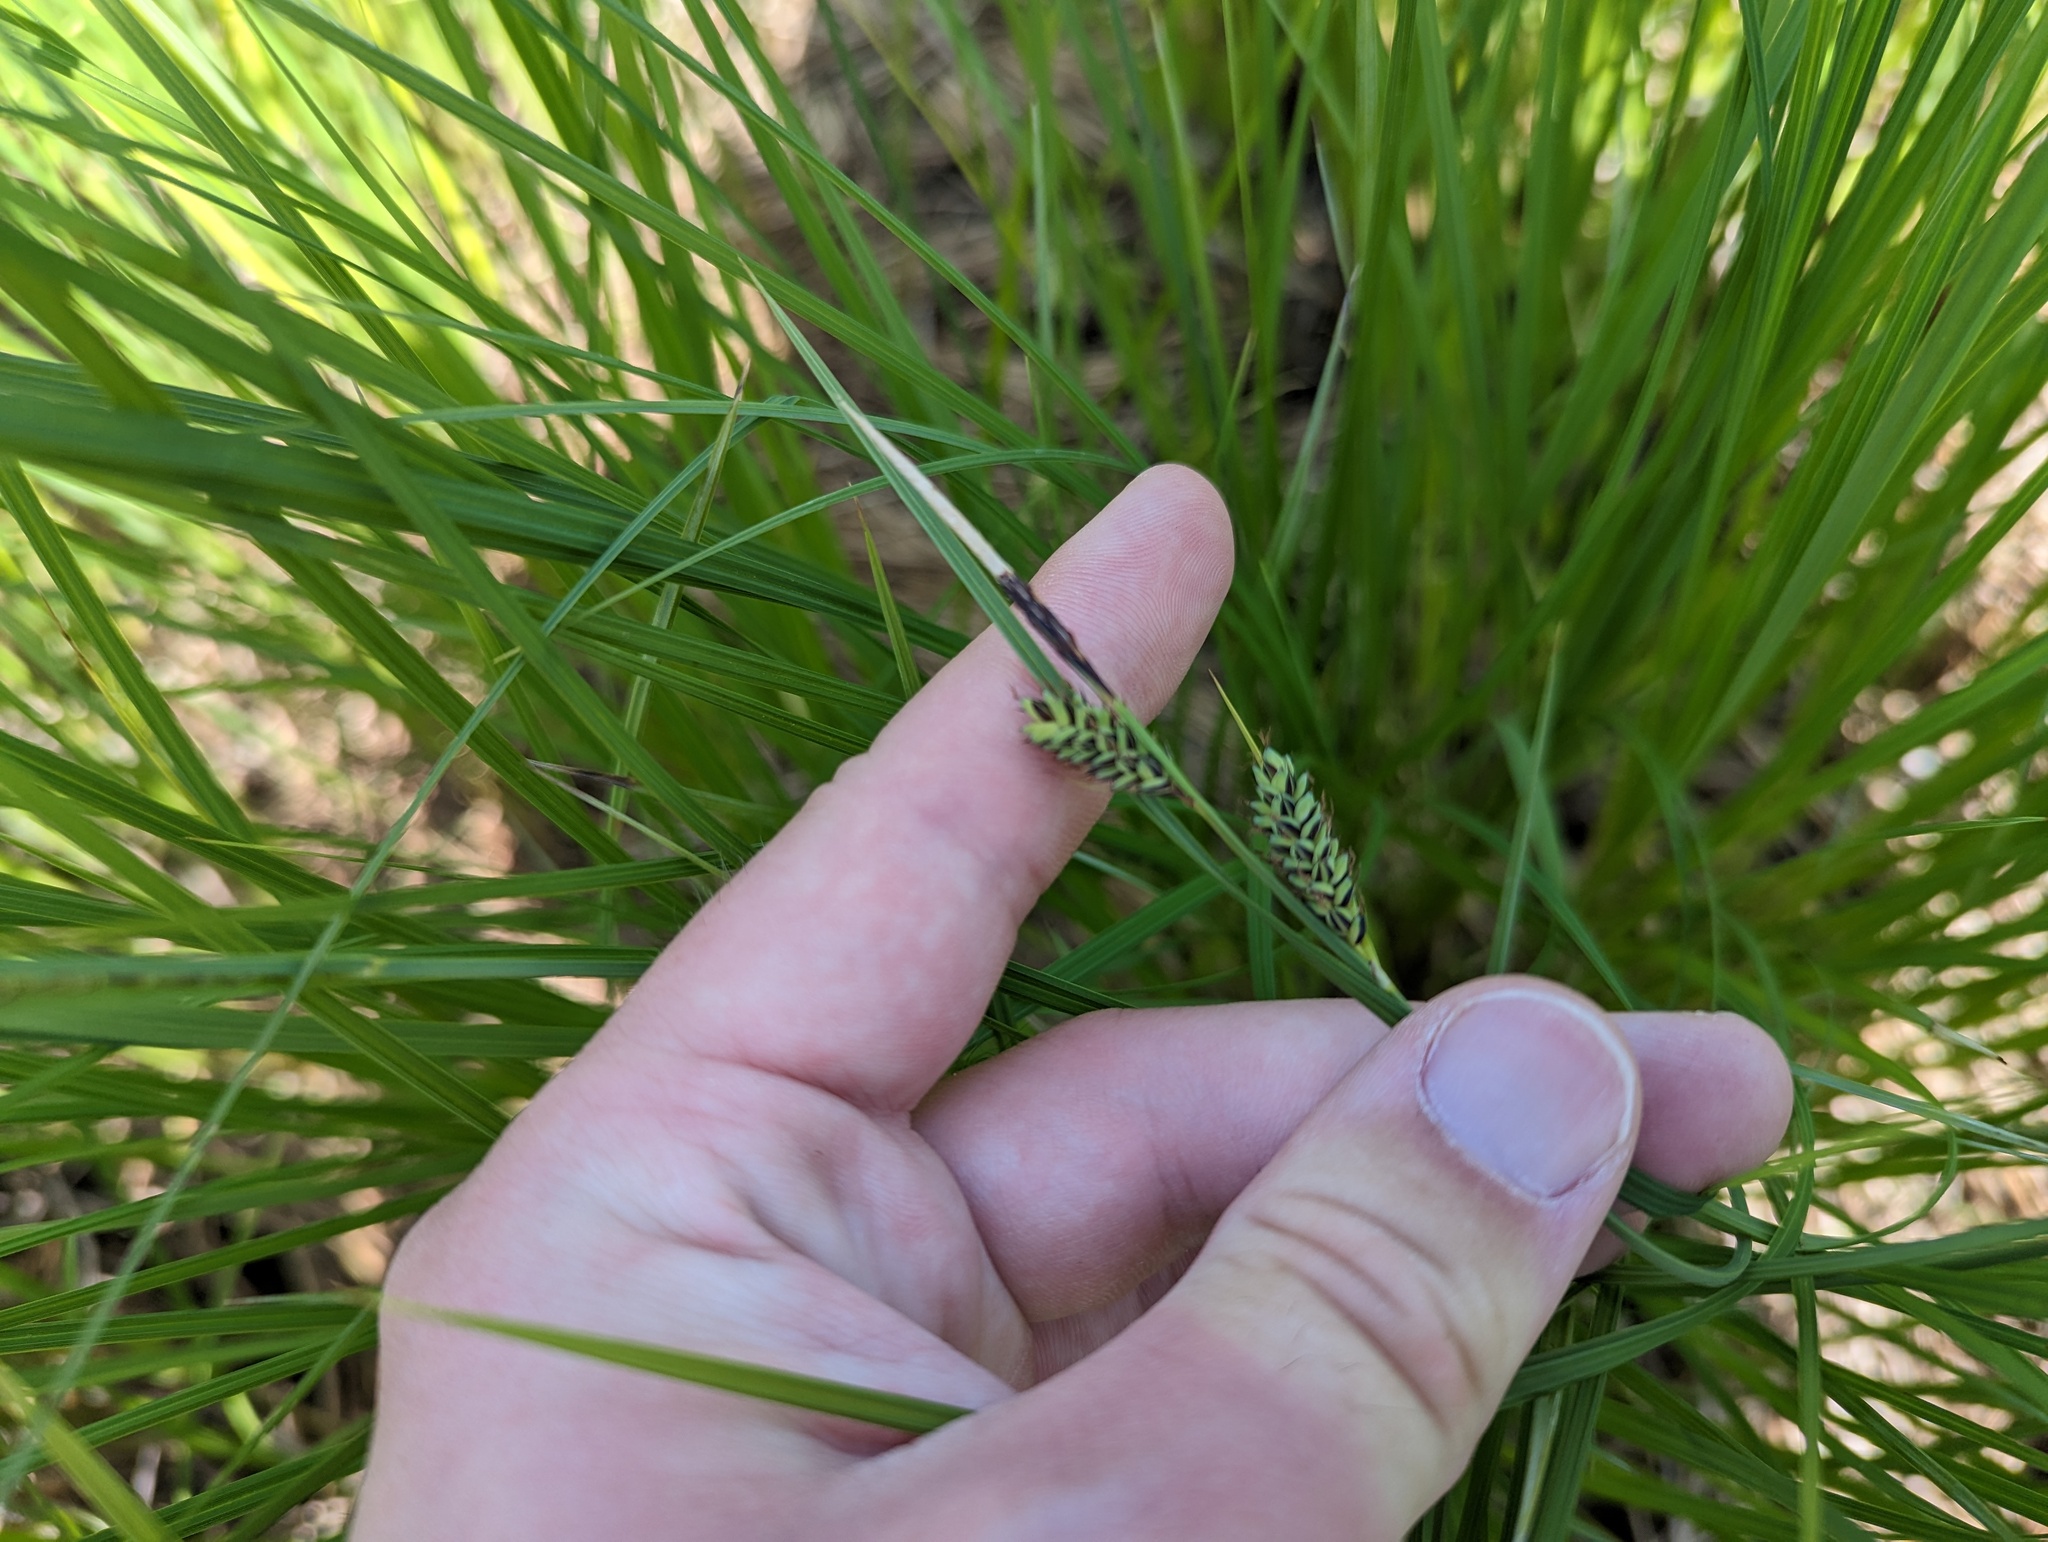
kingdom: Plantae
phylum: Tracheophyta
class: Liliopsida
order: Poales
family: Cyperaceae
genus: Carex
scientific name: Carex buxbaumii
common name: Club sedge
